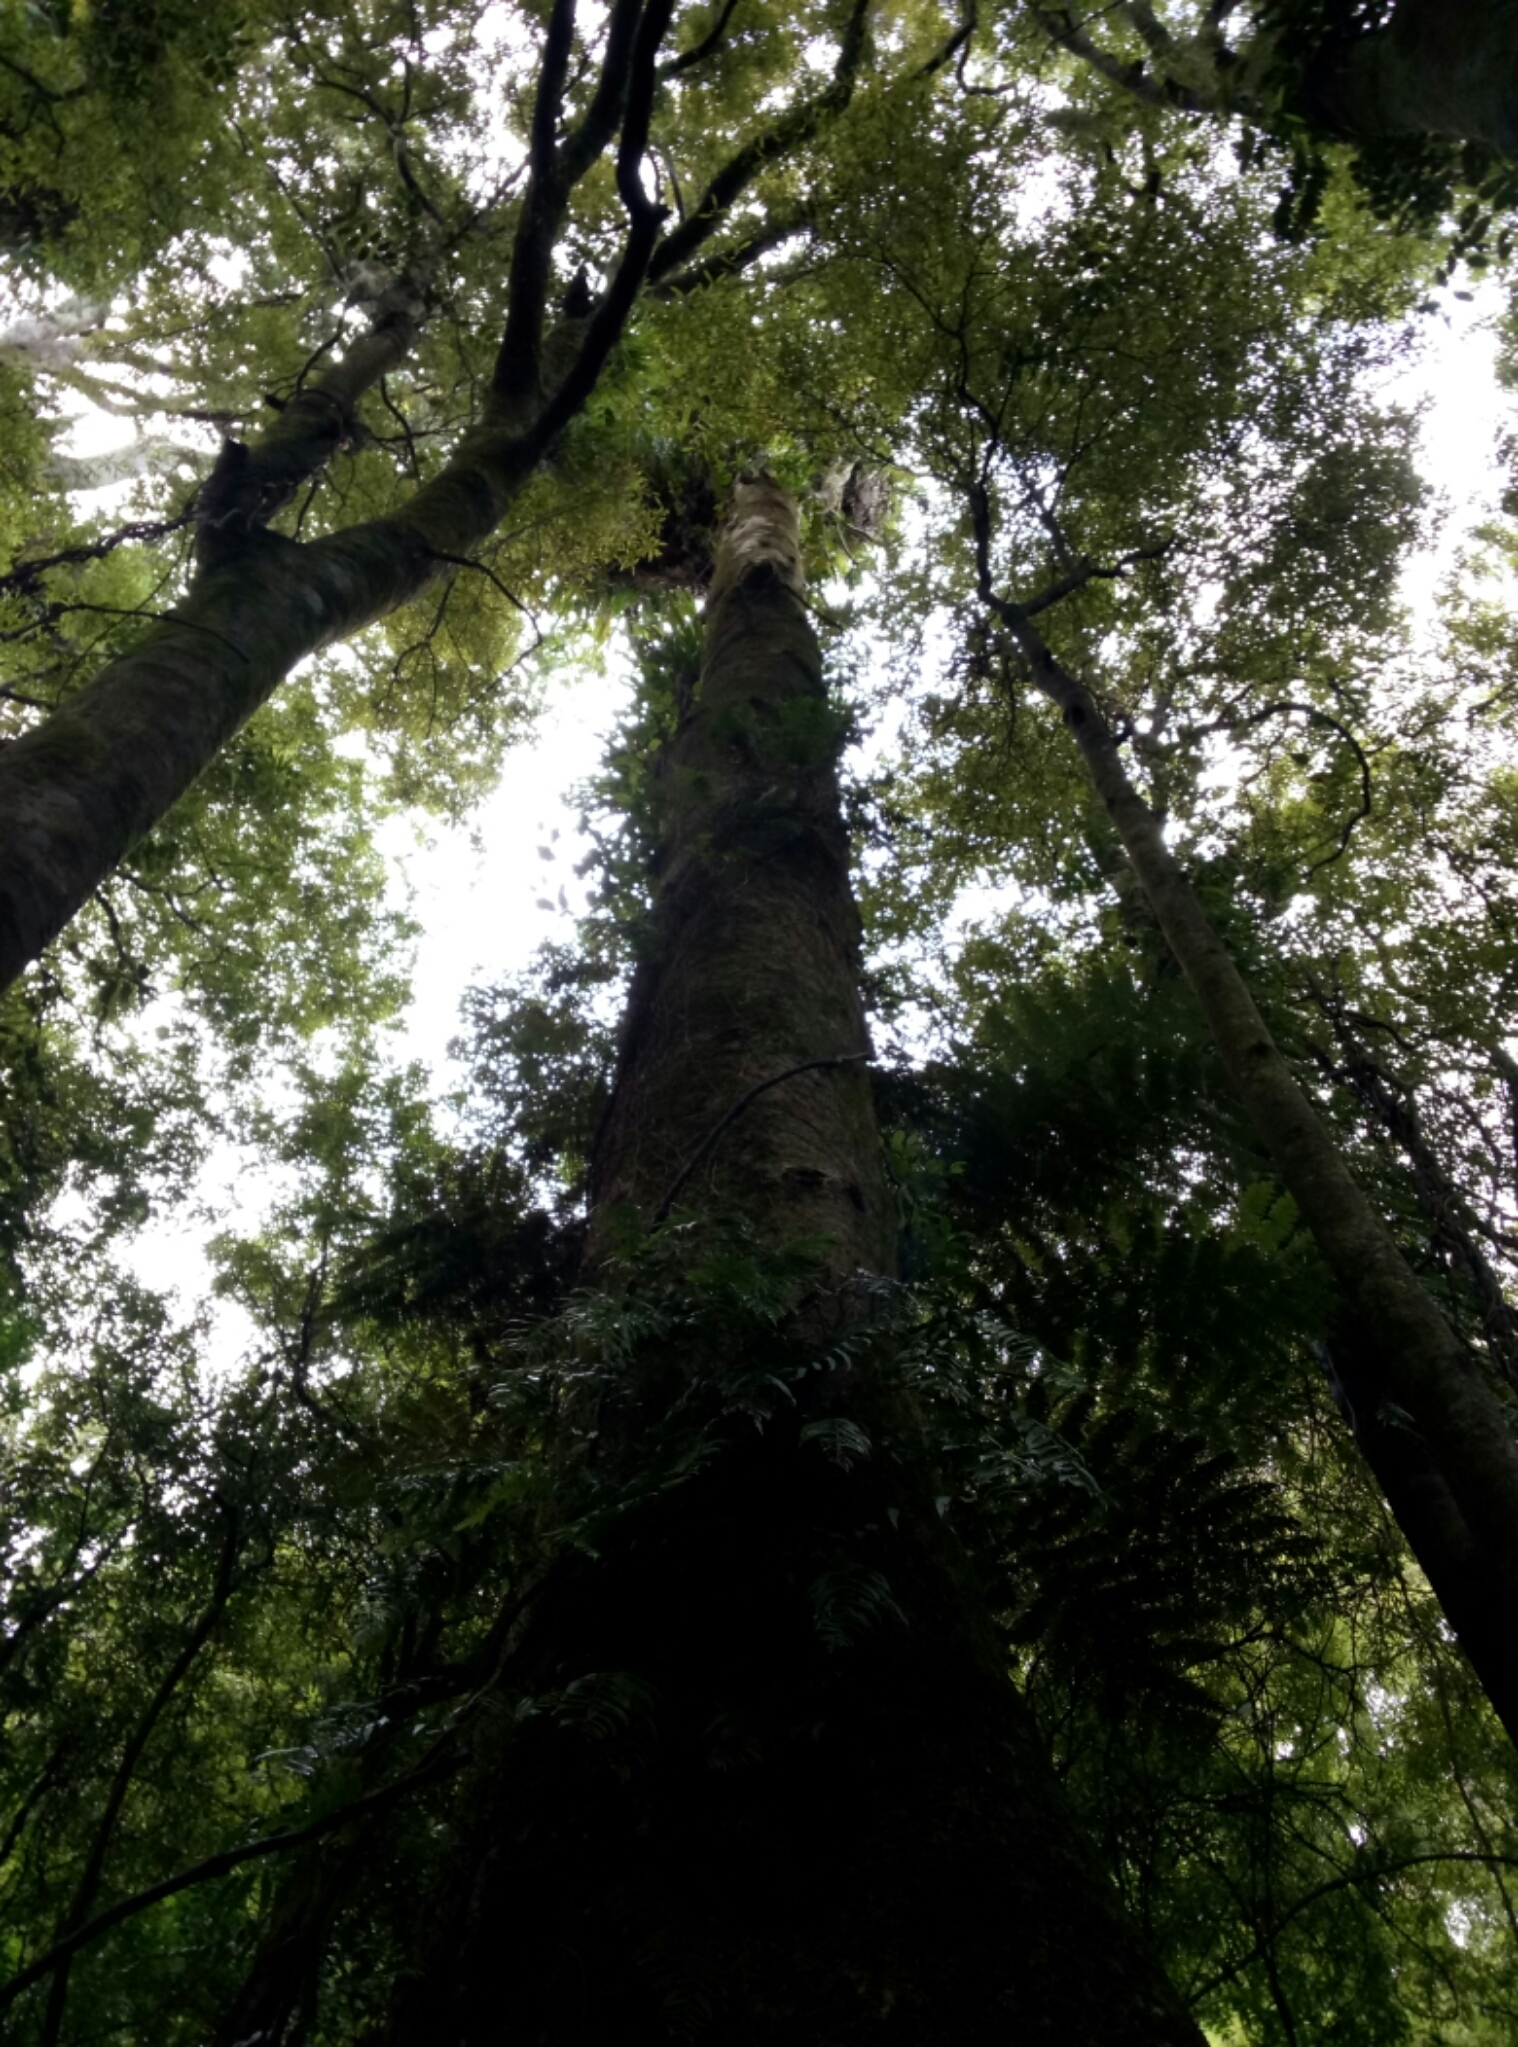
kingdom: Plantae
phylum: Tracheophyta
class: Magnoliopsida
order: Laurales
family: Atherospermataceae
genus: Laurelia
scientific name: Laurelia novae-zelandiae
